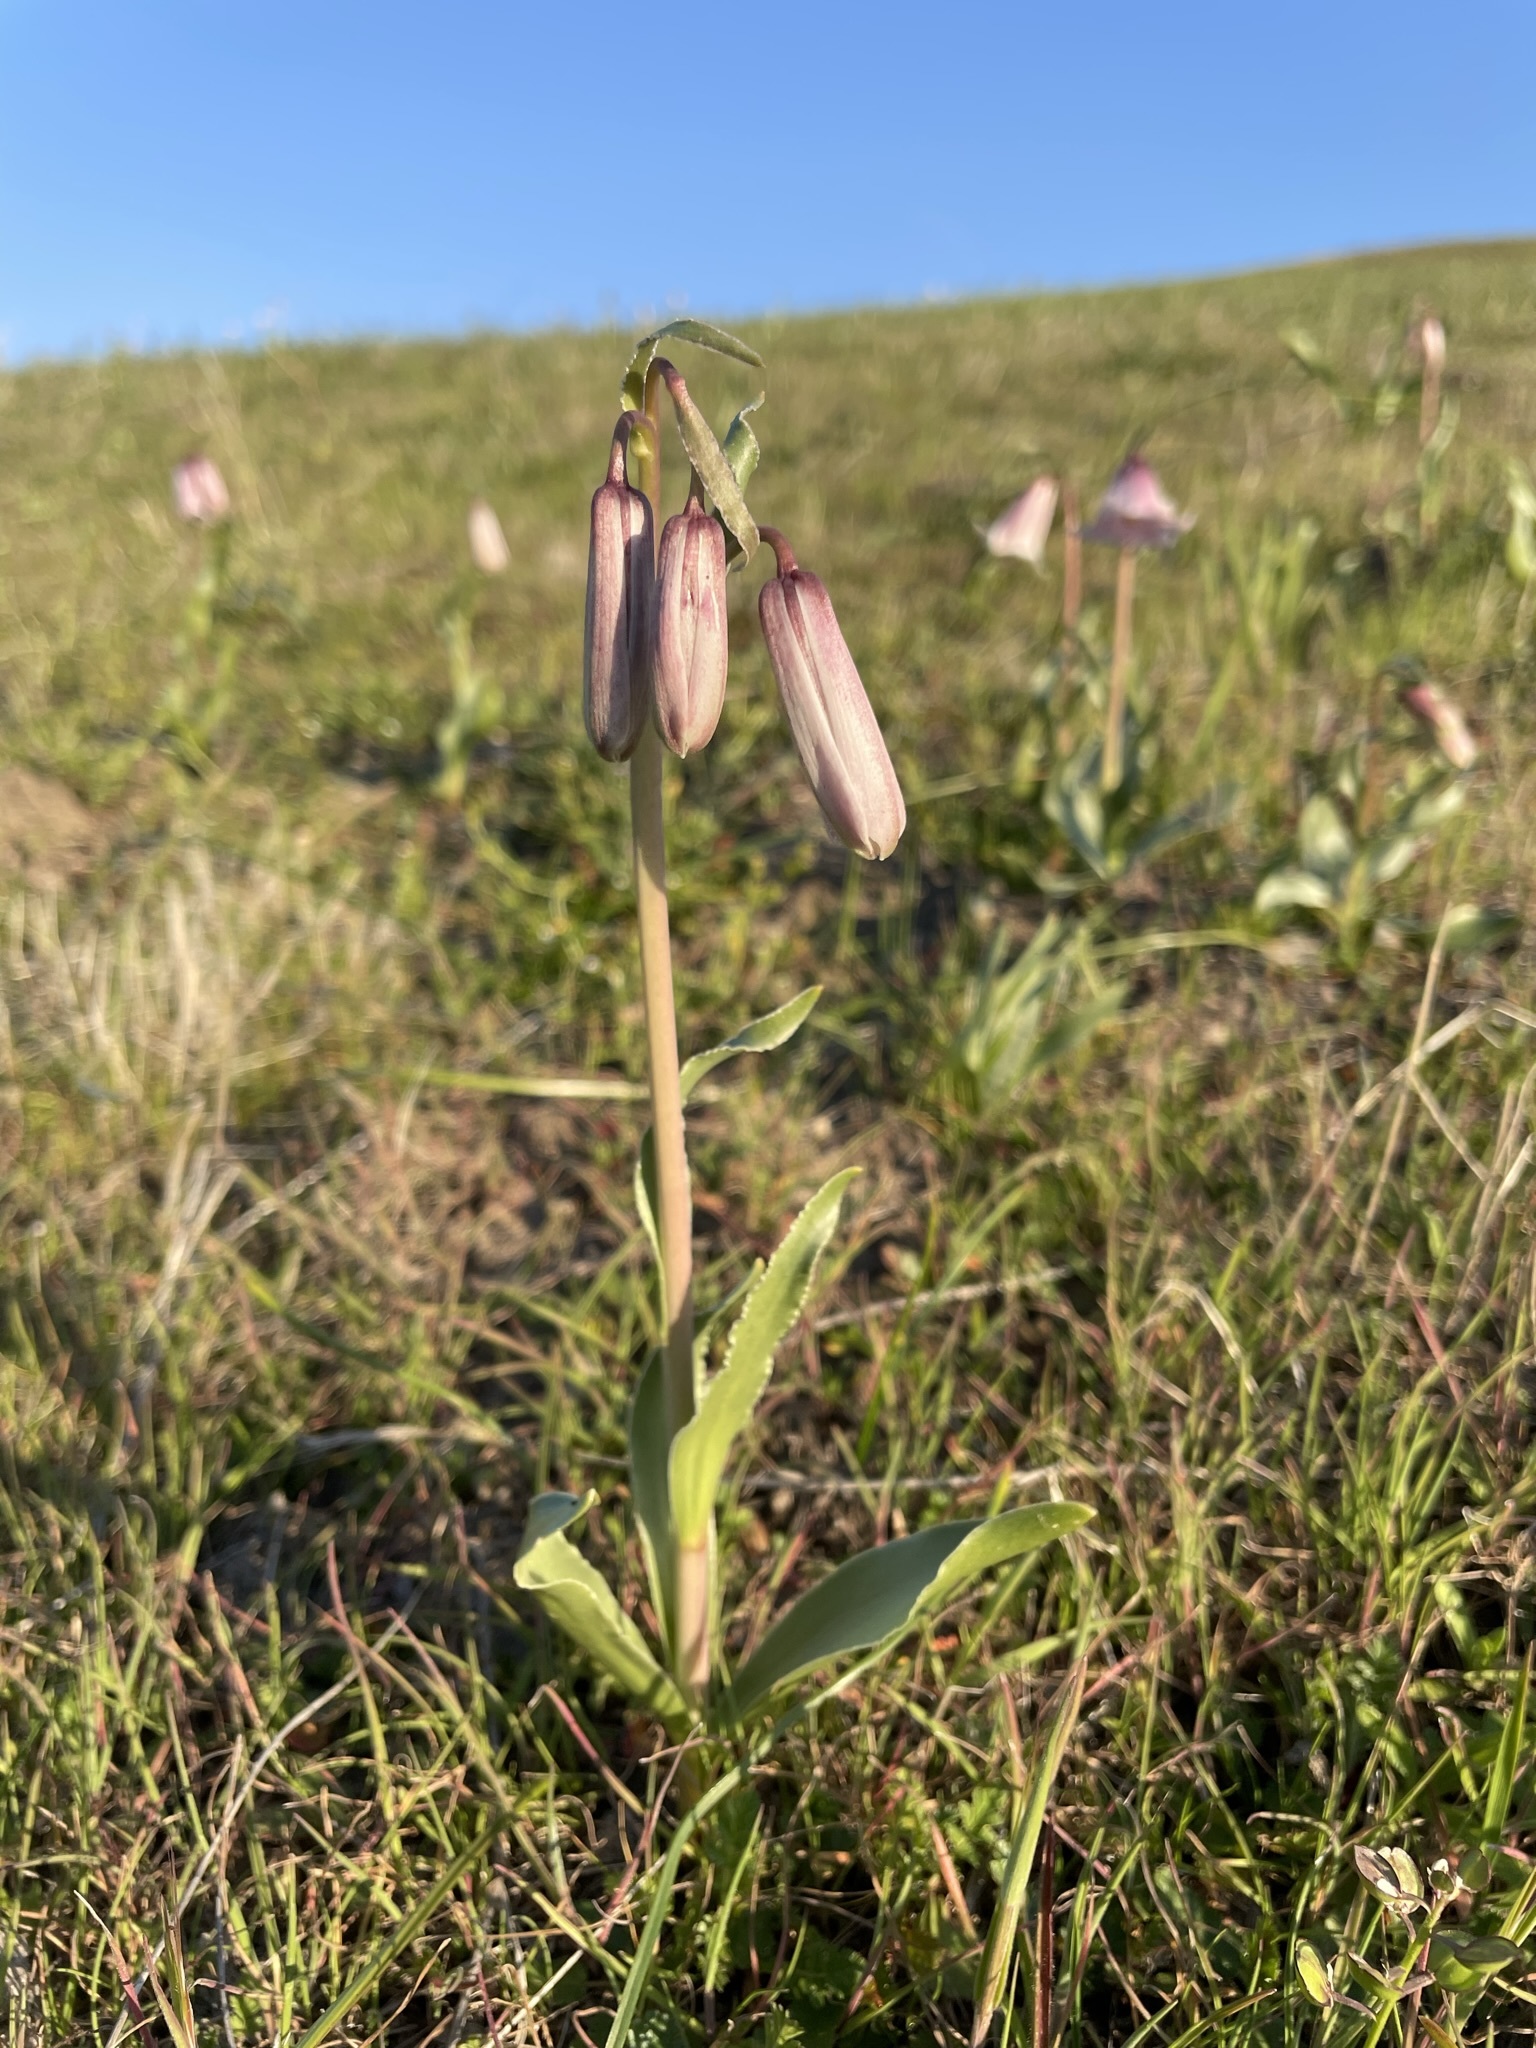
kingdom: Plantae
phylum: Tracheophyta
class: Liliopsida
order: Liliales
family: Liliaceae
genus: Fritillaria
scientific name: Fritillaria striata
